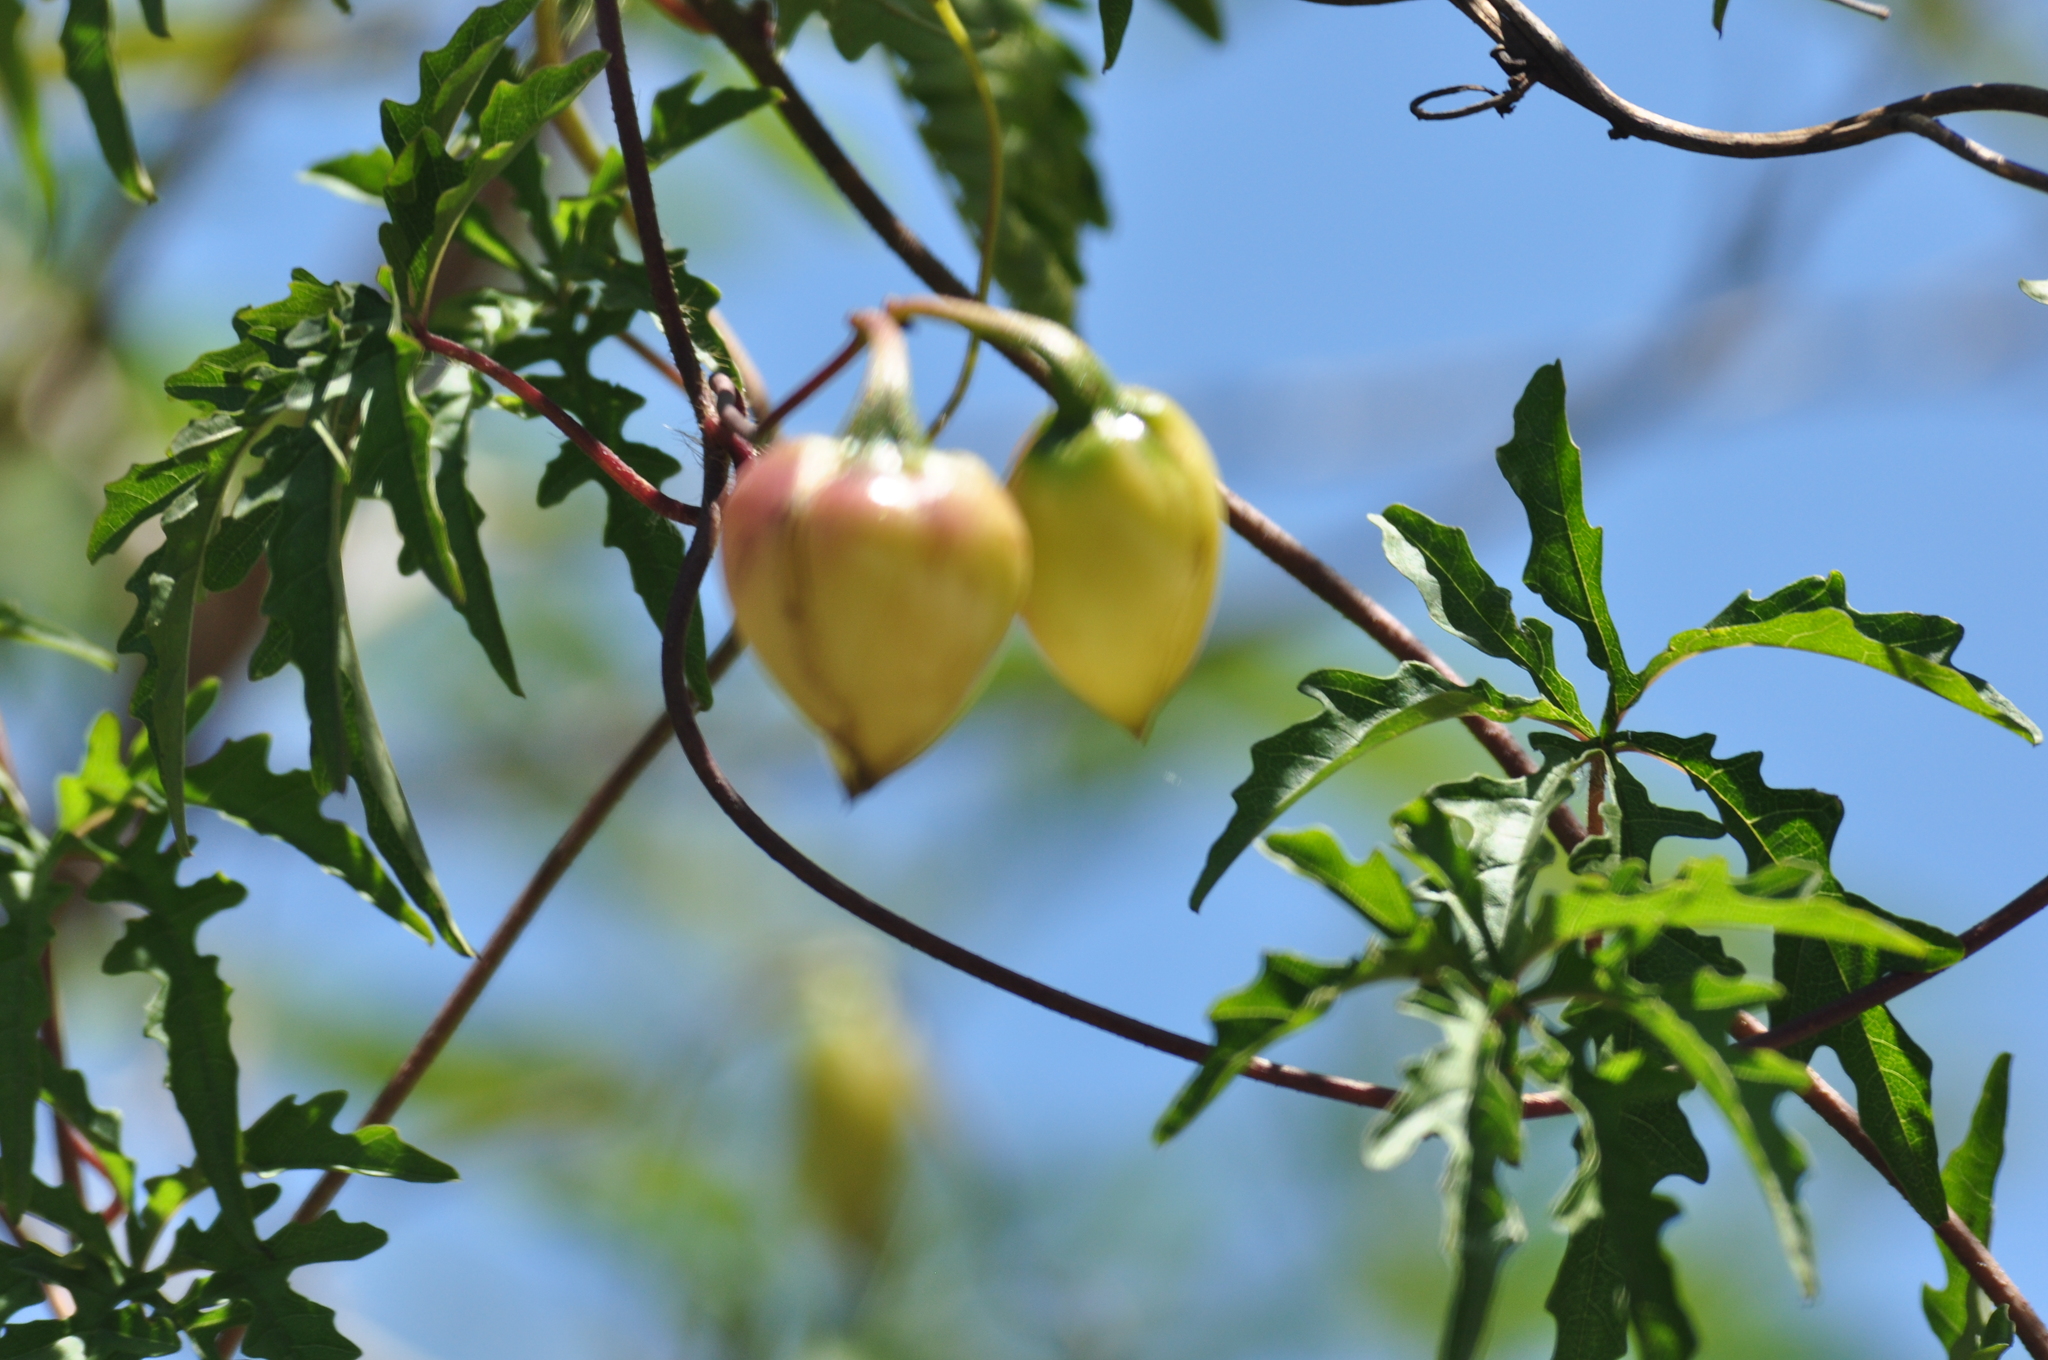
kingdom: Plantae
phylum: Tracheophyta
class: Magnoliopsida
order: Solanales
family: Convolvulaceae
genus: Distimake
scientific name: Distimake dissectus
